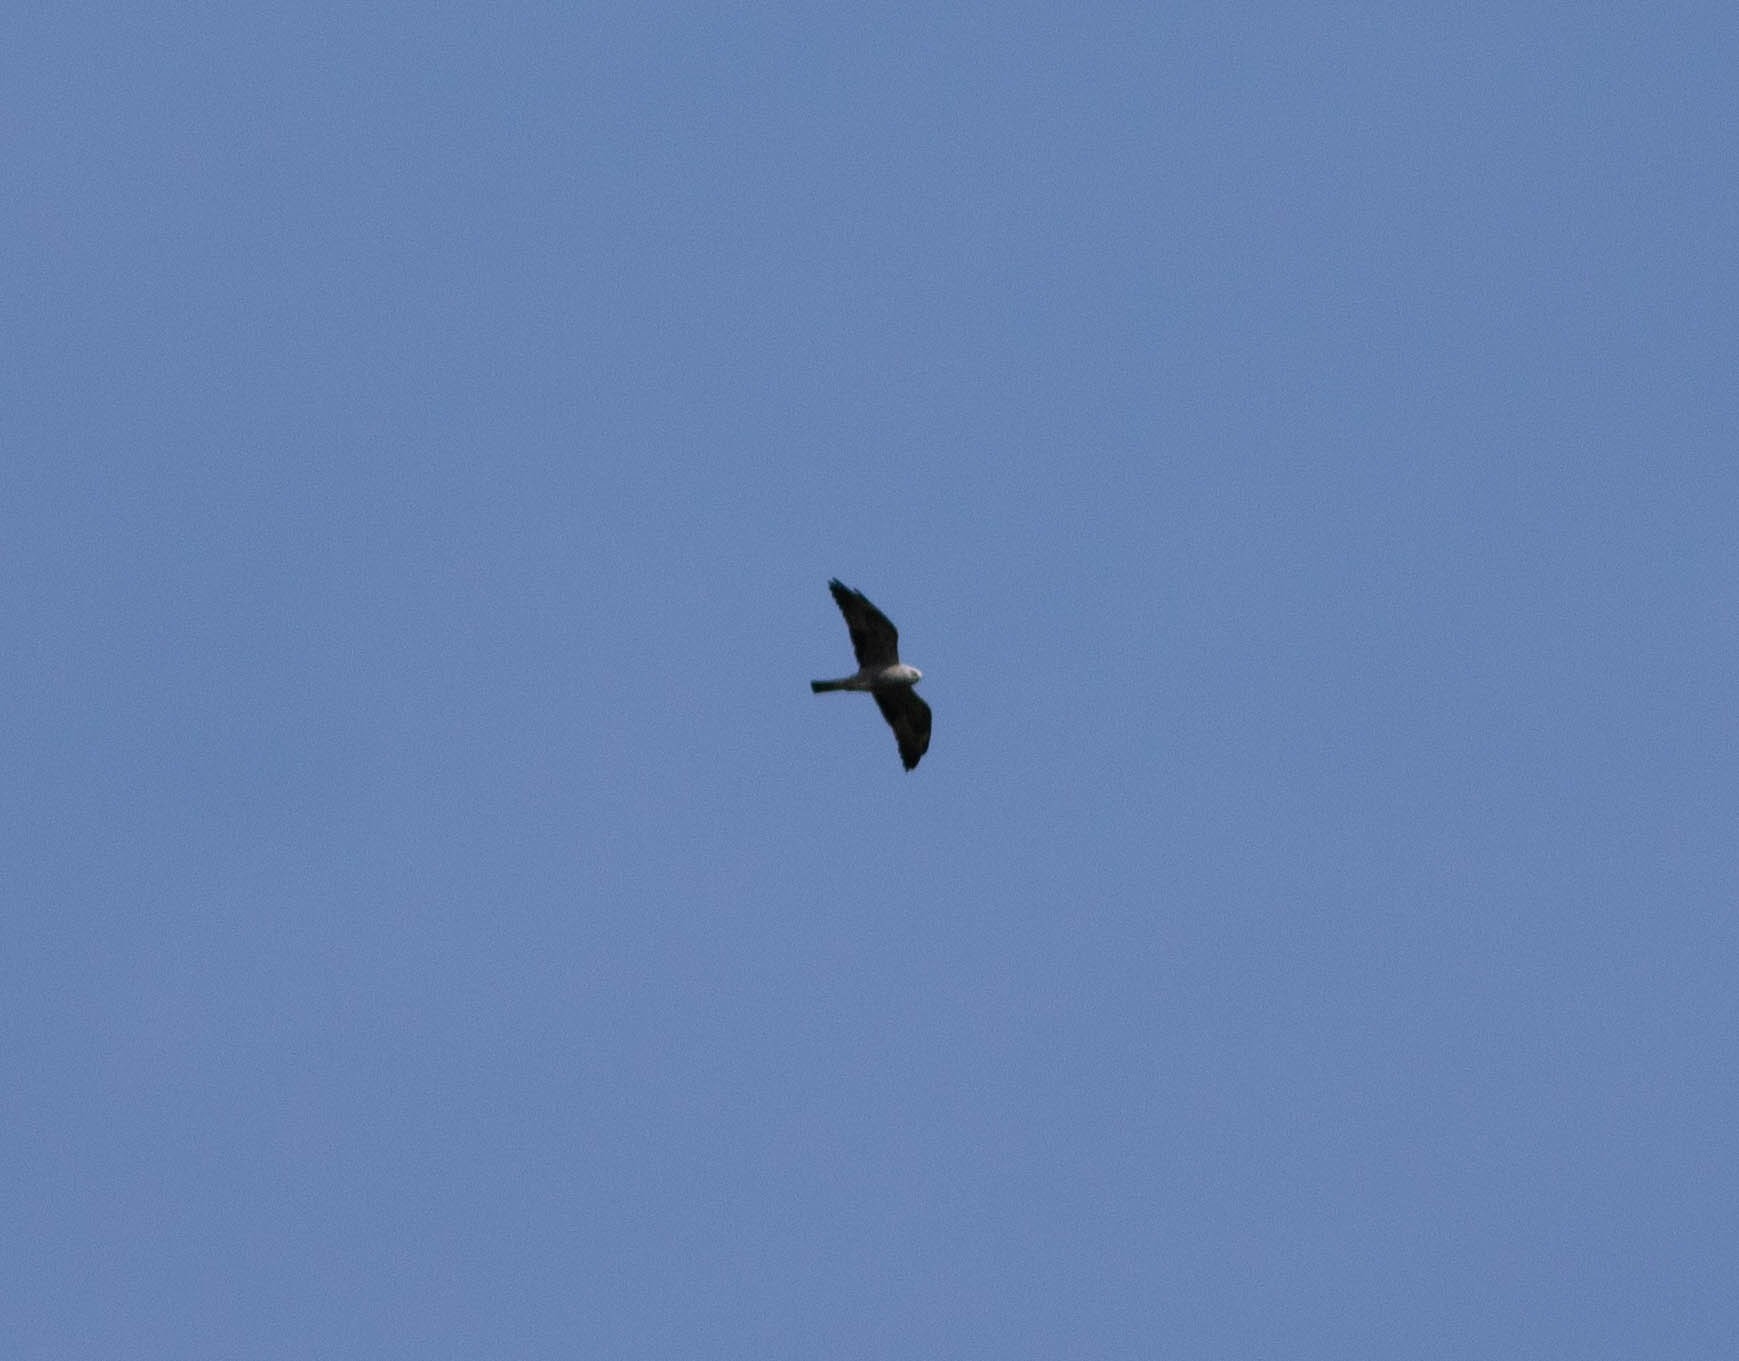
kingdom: Animalia
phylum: Chordata
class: Aves
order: Accipitriformes
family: Accipitridae
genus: Ictinia
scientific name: Ictinia mississippiensis
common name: Mississippi kite
